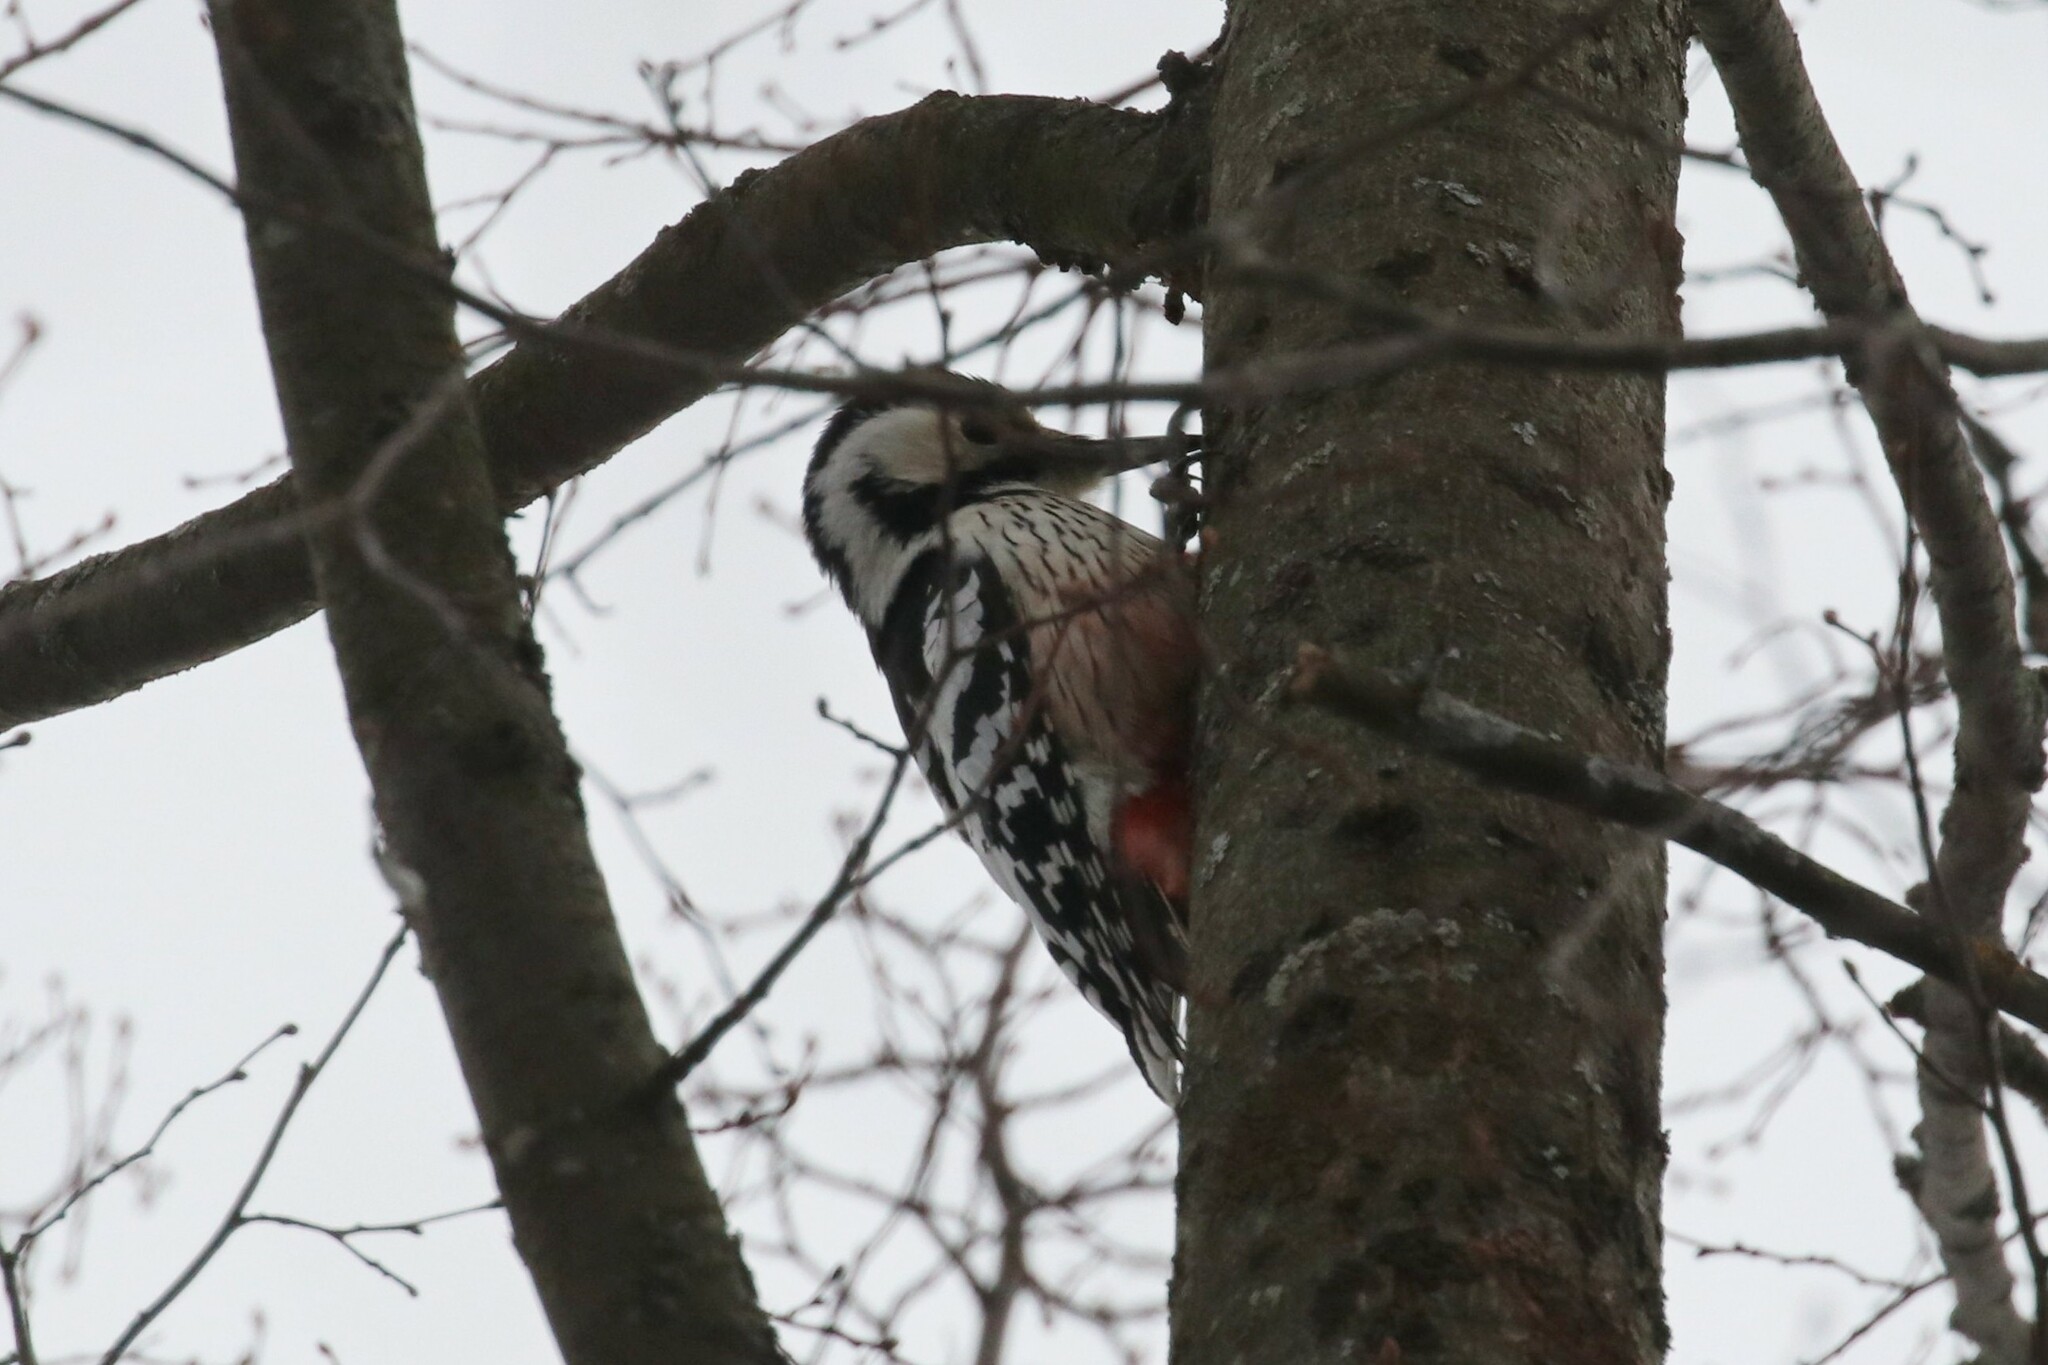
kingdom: Animalia
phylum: Chordata
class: Aves
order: Piciformes
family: Picidae
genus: Dendrocopos
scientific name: Dendrocopos leucotos
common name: White-backed woodpecker
